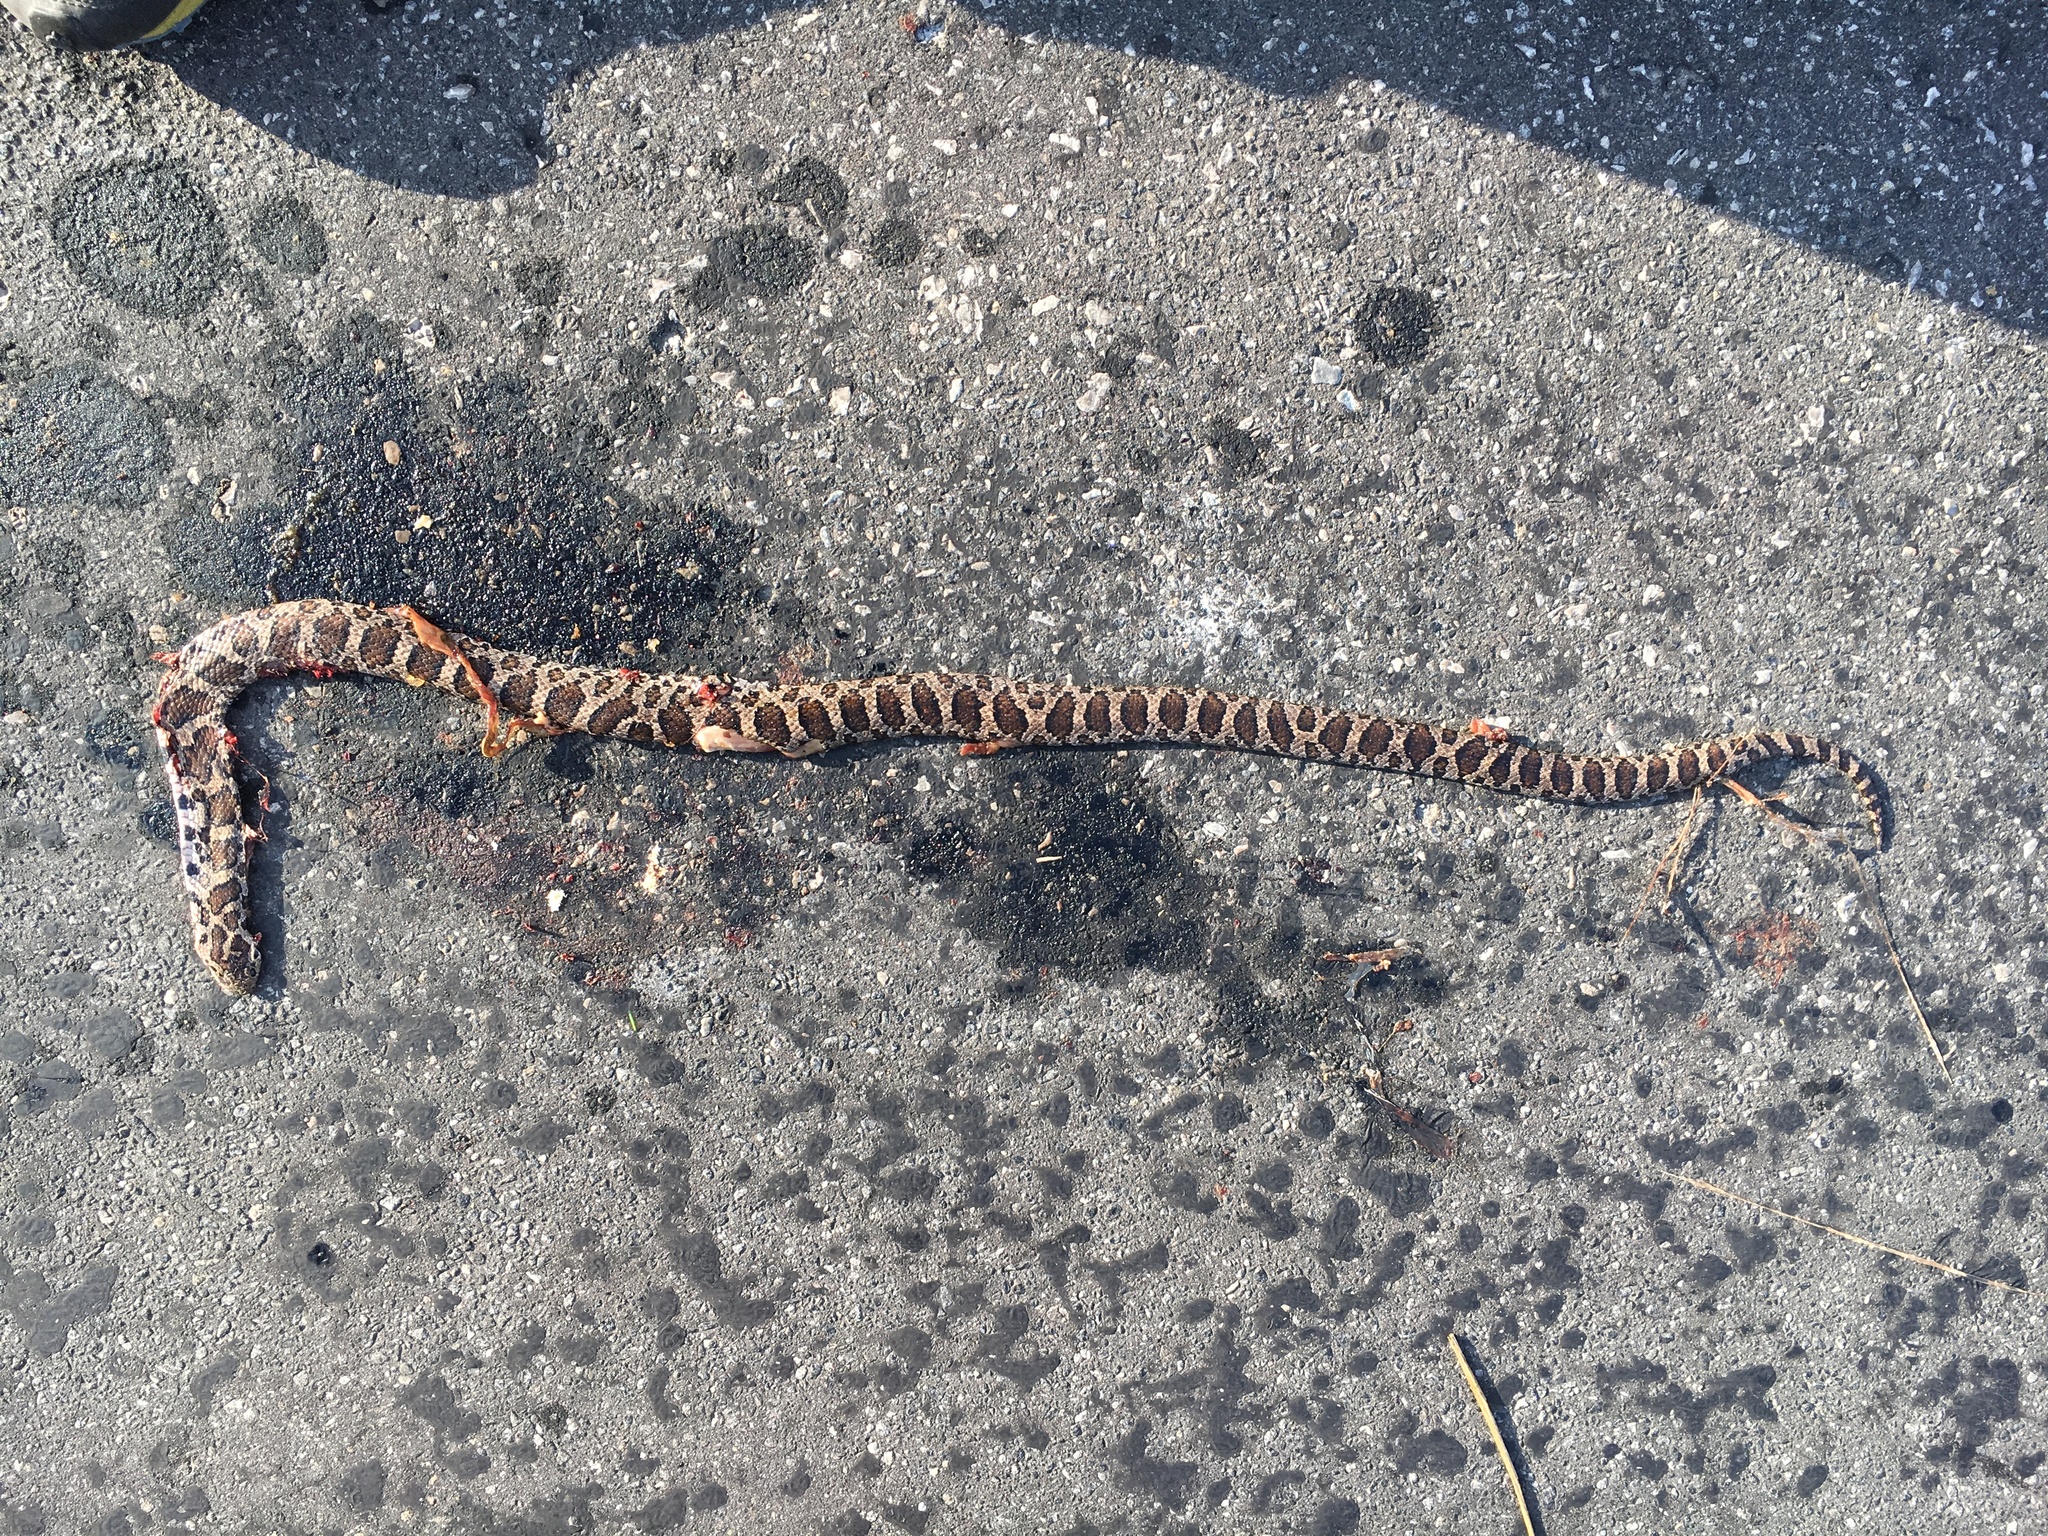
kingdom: Animalia
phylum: Chordata
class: Squamata
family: Colubridae
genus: Lampropeltis
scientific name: Lampropeltis triangulum
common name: Eastern milksnake
